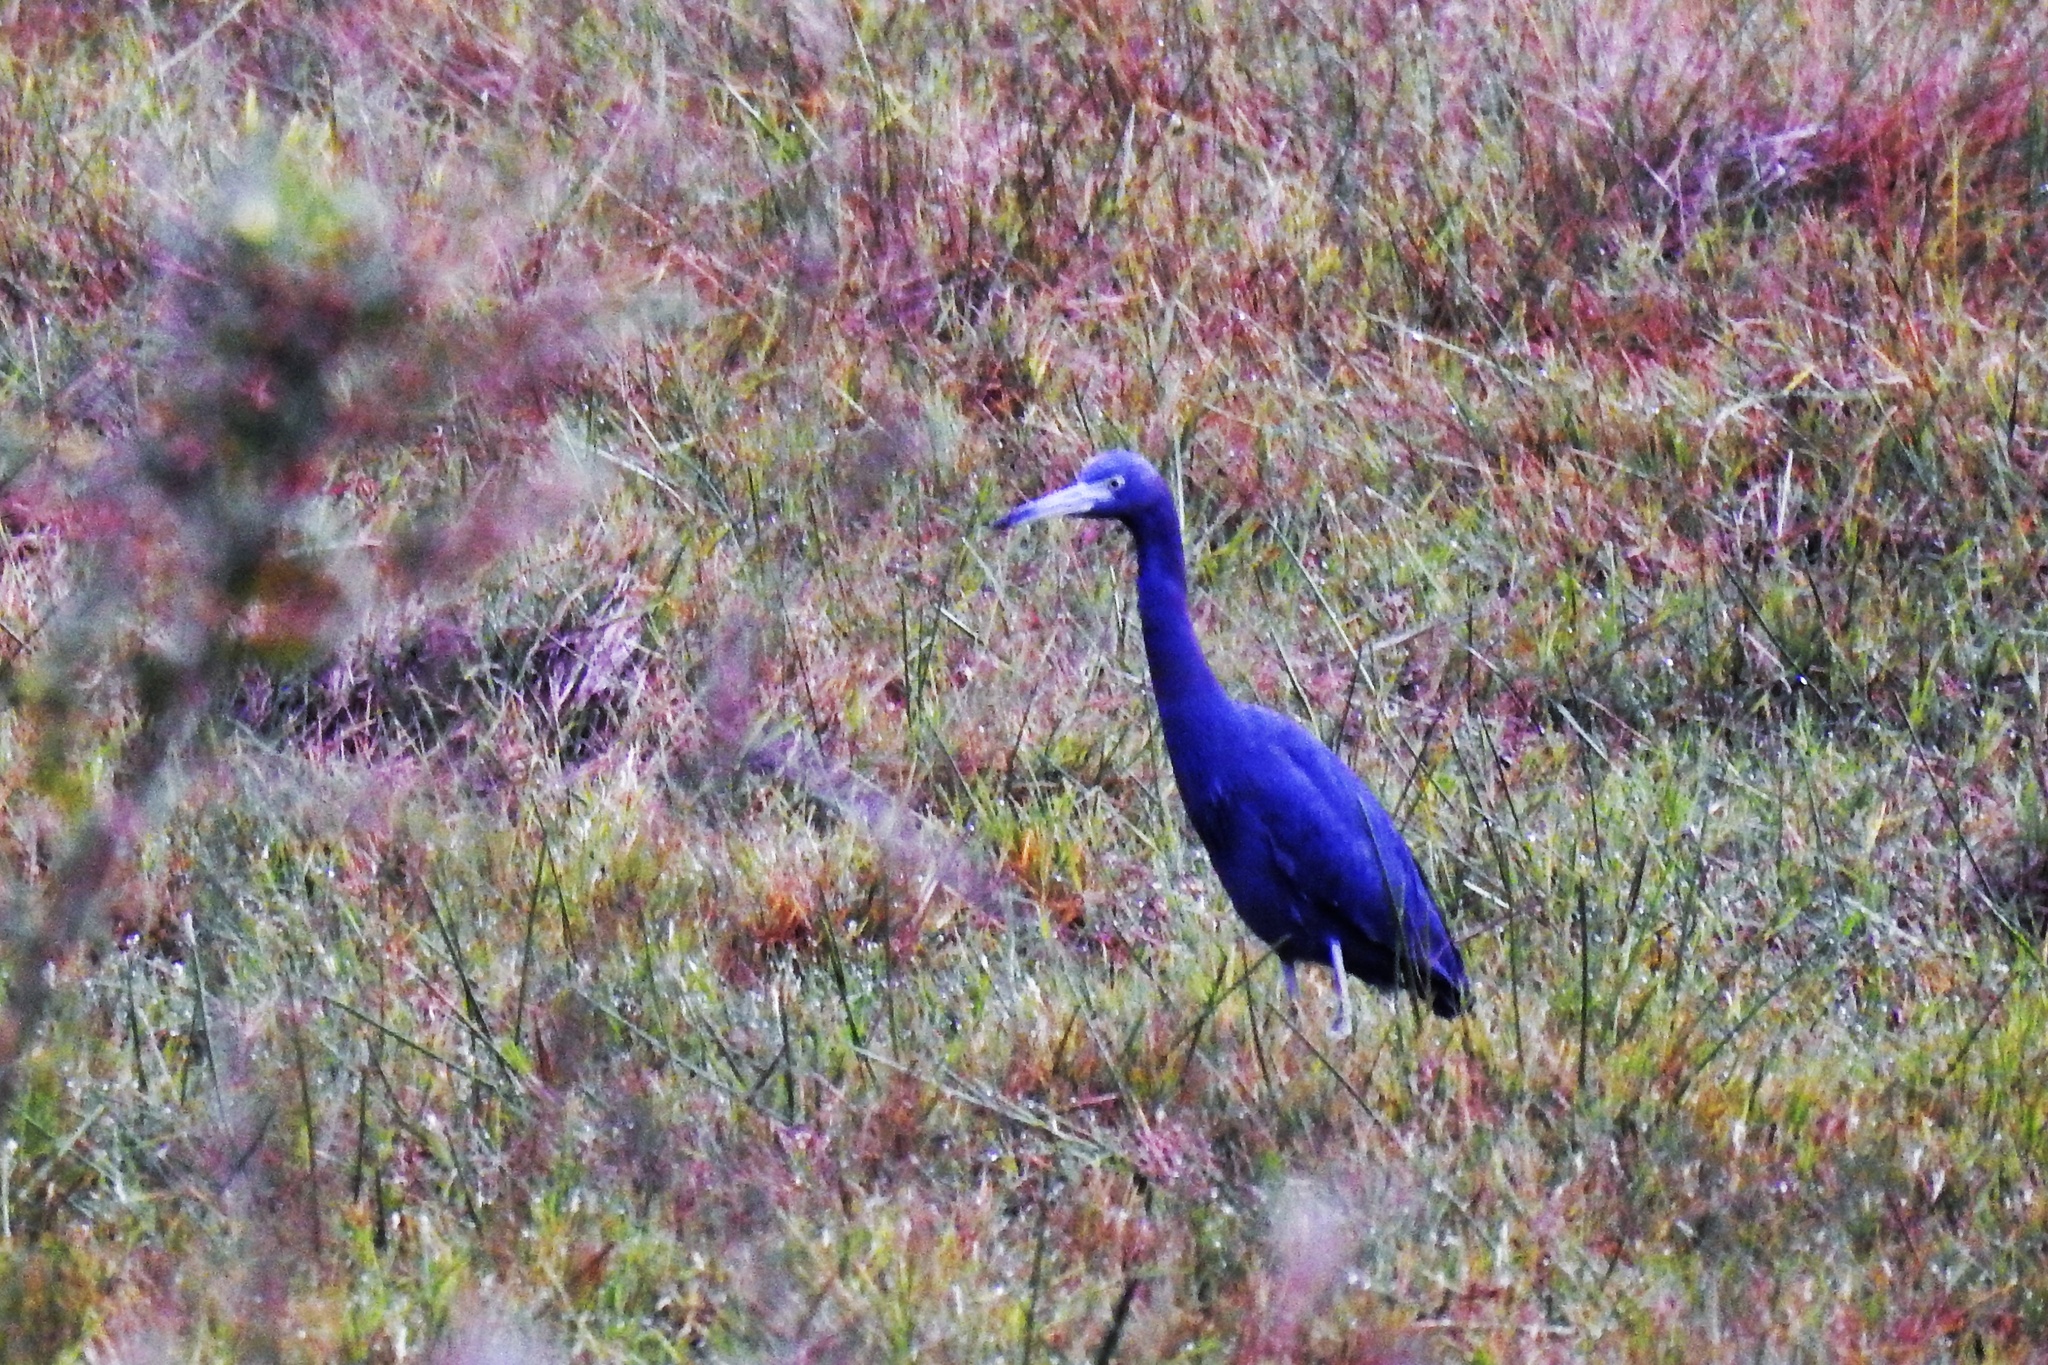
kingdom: Animalia
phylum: Chordata
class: Aves
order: Pelecaniformes
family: Ardeidae
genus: Egretta
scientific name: Egretta caerulea
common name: Little blue heron
